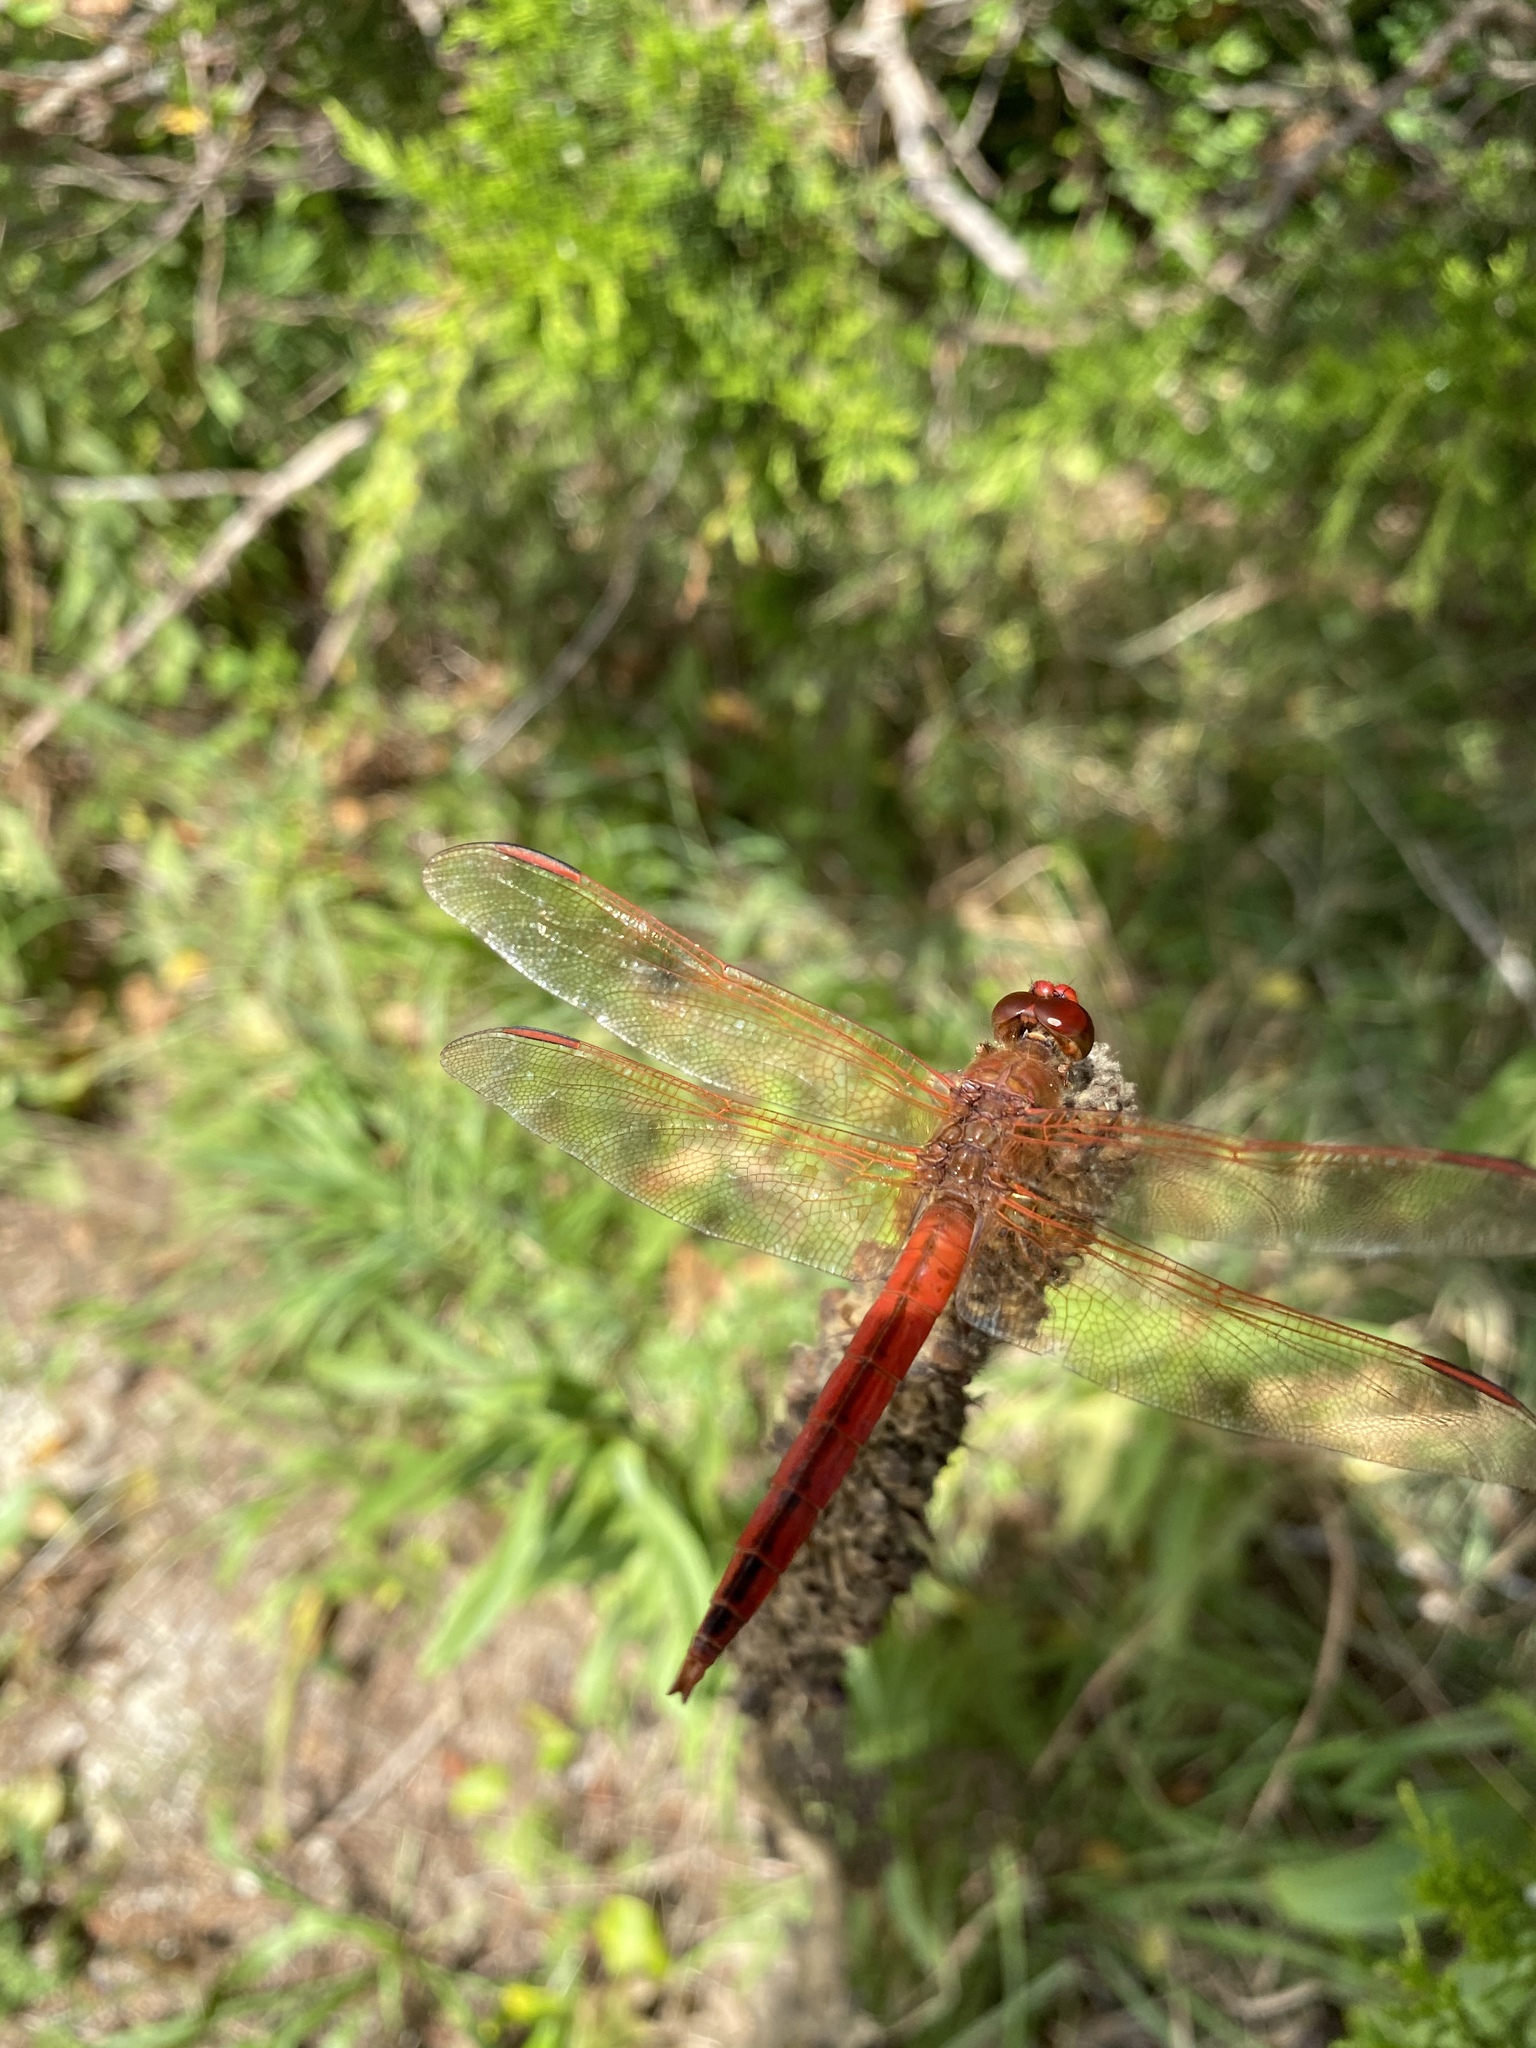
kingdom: Animalia
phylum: Arthropoda
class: Insecta
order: Odonata
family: Libellulidae
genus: Libellula
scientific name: Libellula needhami
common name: Needham's skimmer
